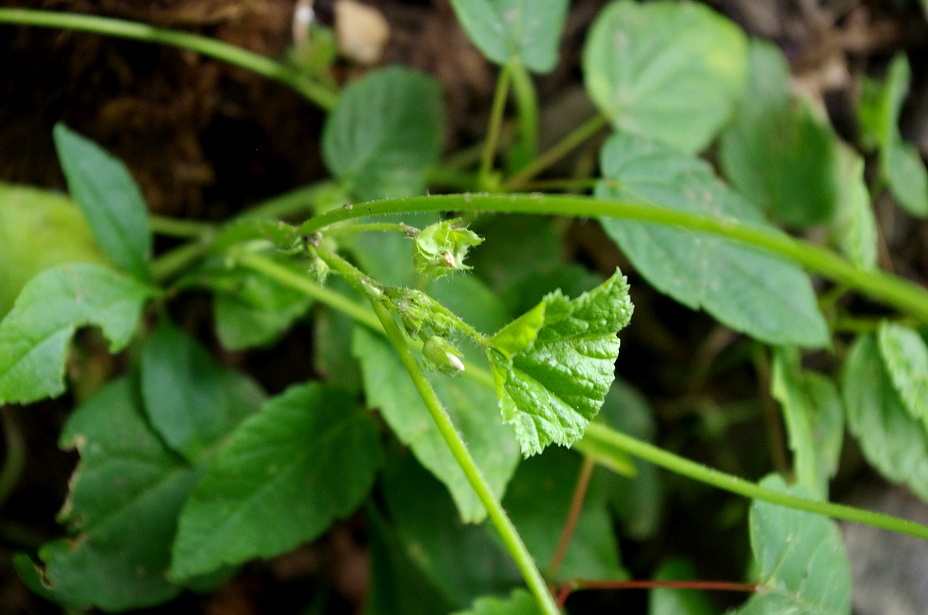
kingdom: Plantae
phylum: Tracheophyta
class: Magnoliopsida
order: Malvales
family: Malvaceae
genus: Malva
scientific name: Malva pusilla
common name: Small mallow
